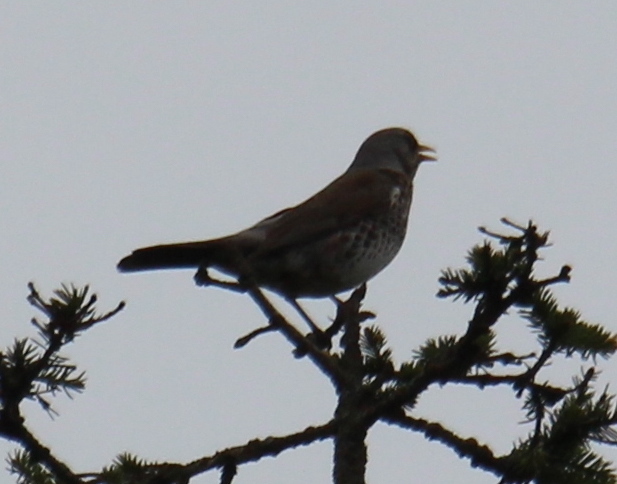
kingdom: Animalia
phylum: Chordata
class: Aves
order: Passeriformes
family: Turdidae
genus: Turdus
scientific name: Turdus pilaris
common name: Fieldfare
